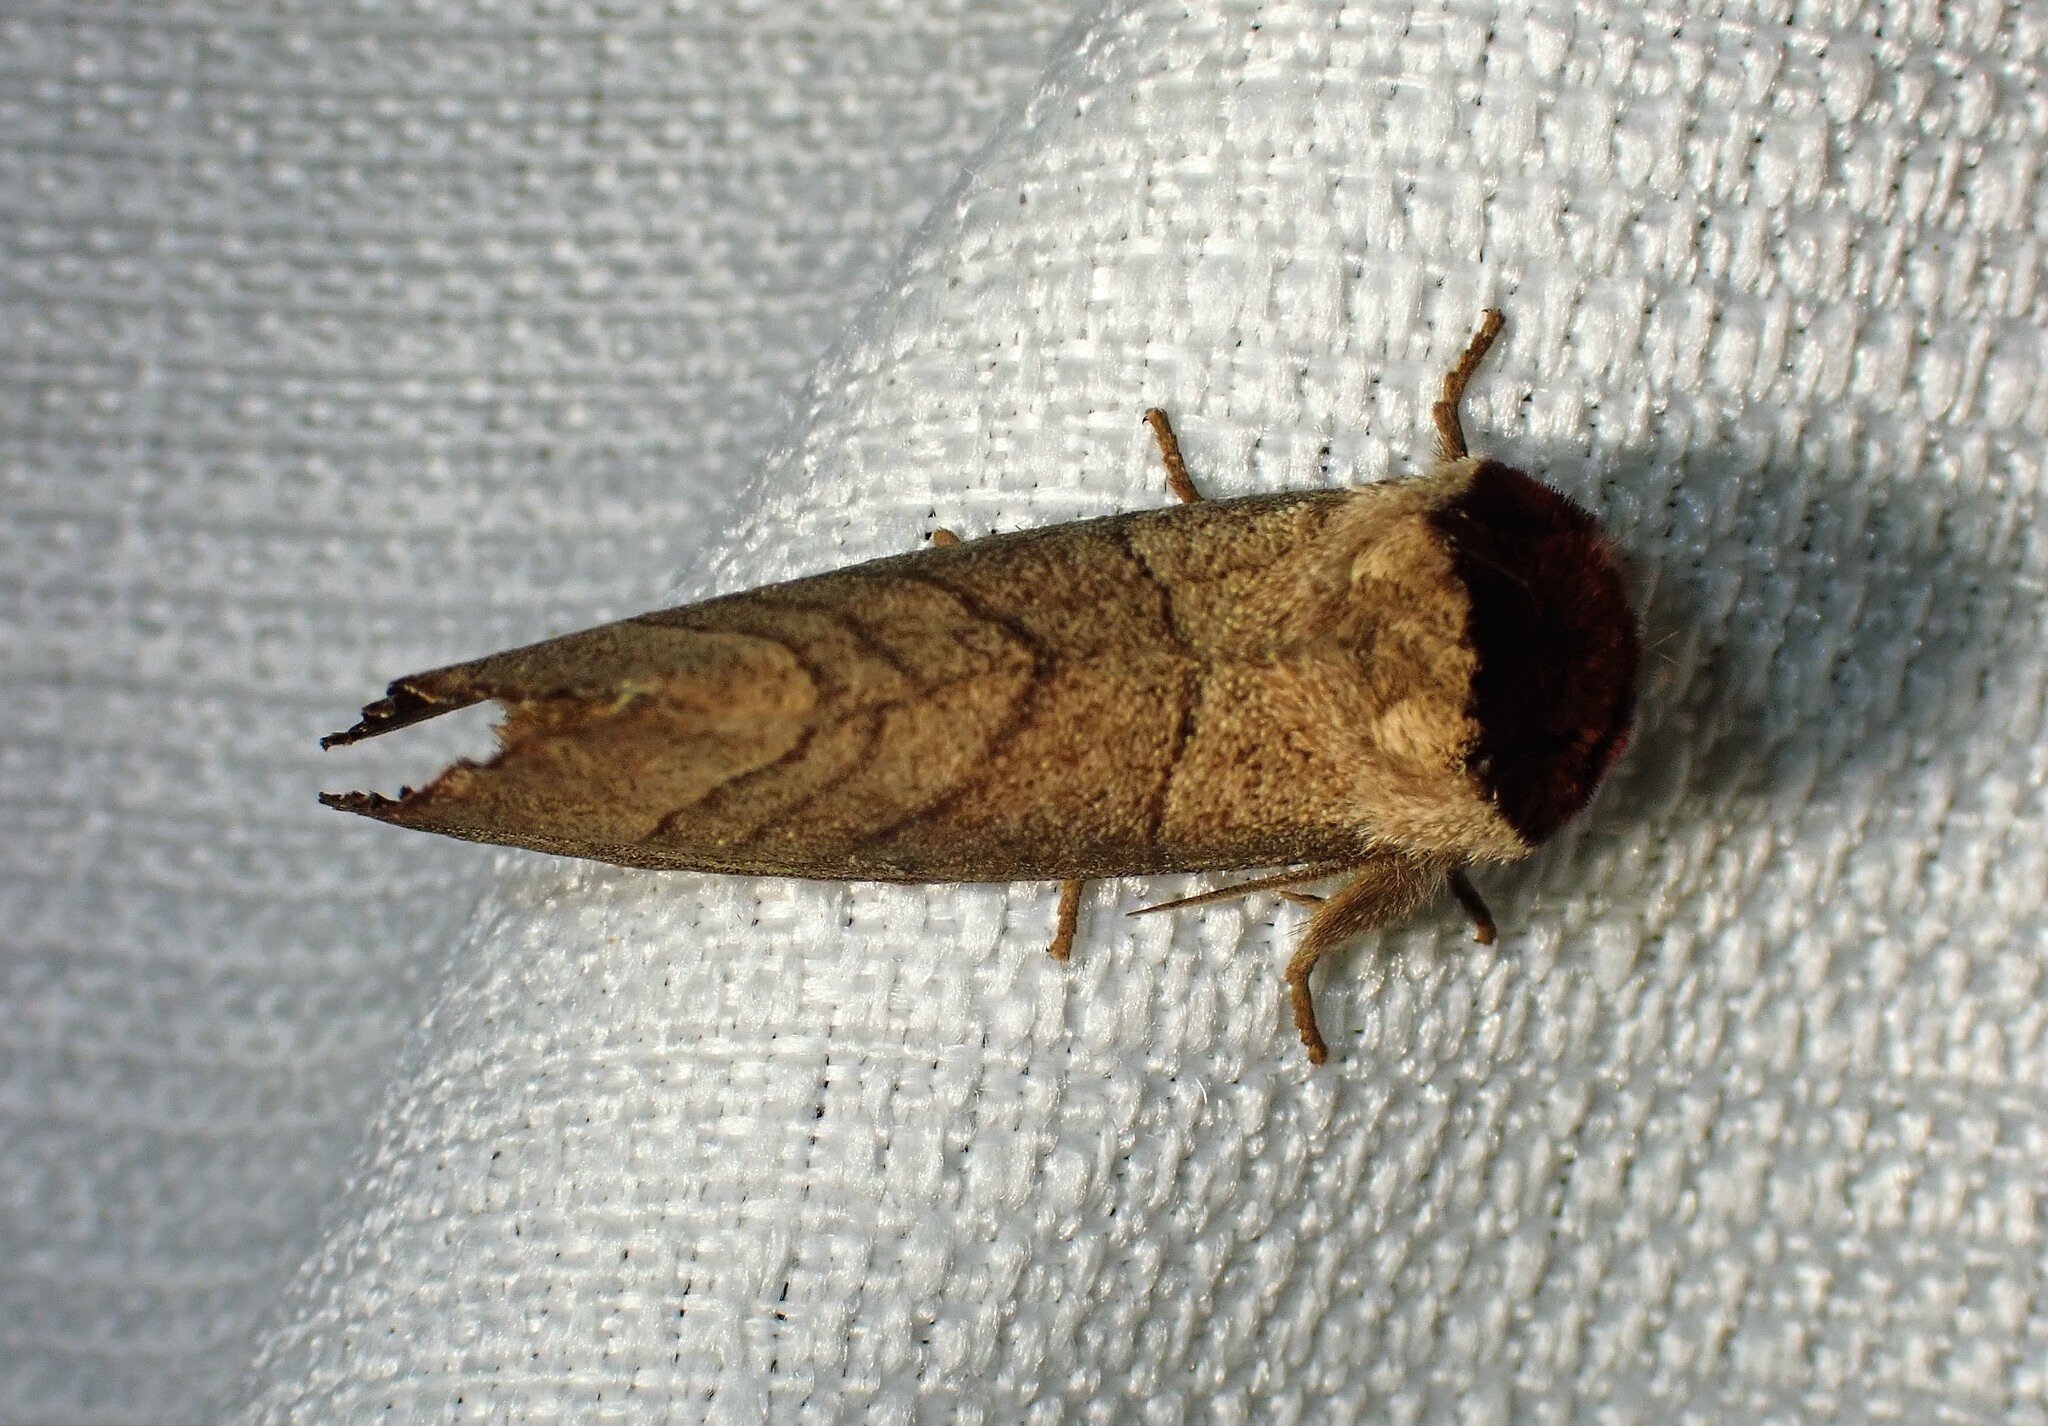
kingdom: Animalia
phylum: Arthropoda
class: Insecta
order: Lepidoptera
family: Notodontidae
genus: Datana
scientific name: Datana ministra
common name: Yellow-necked caterpillar moth
